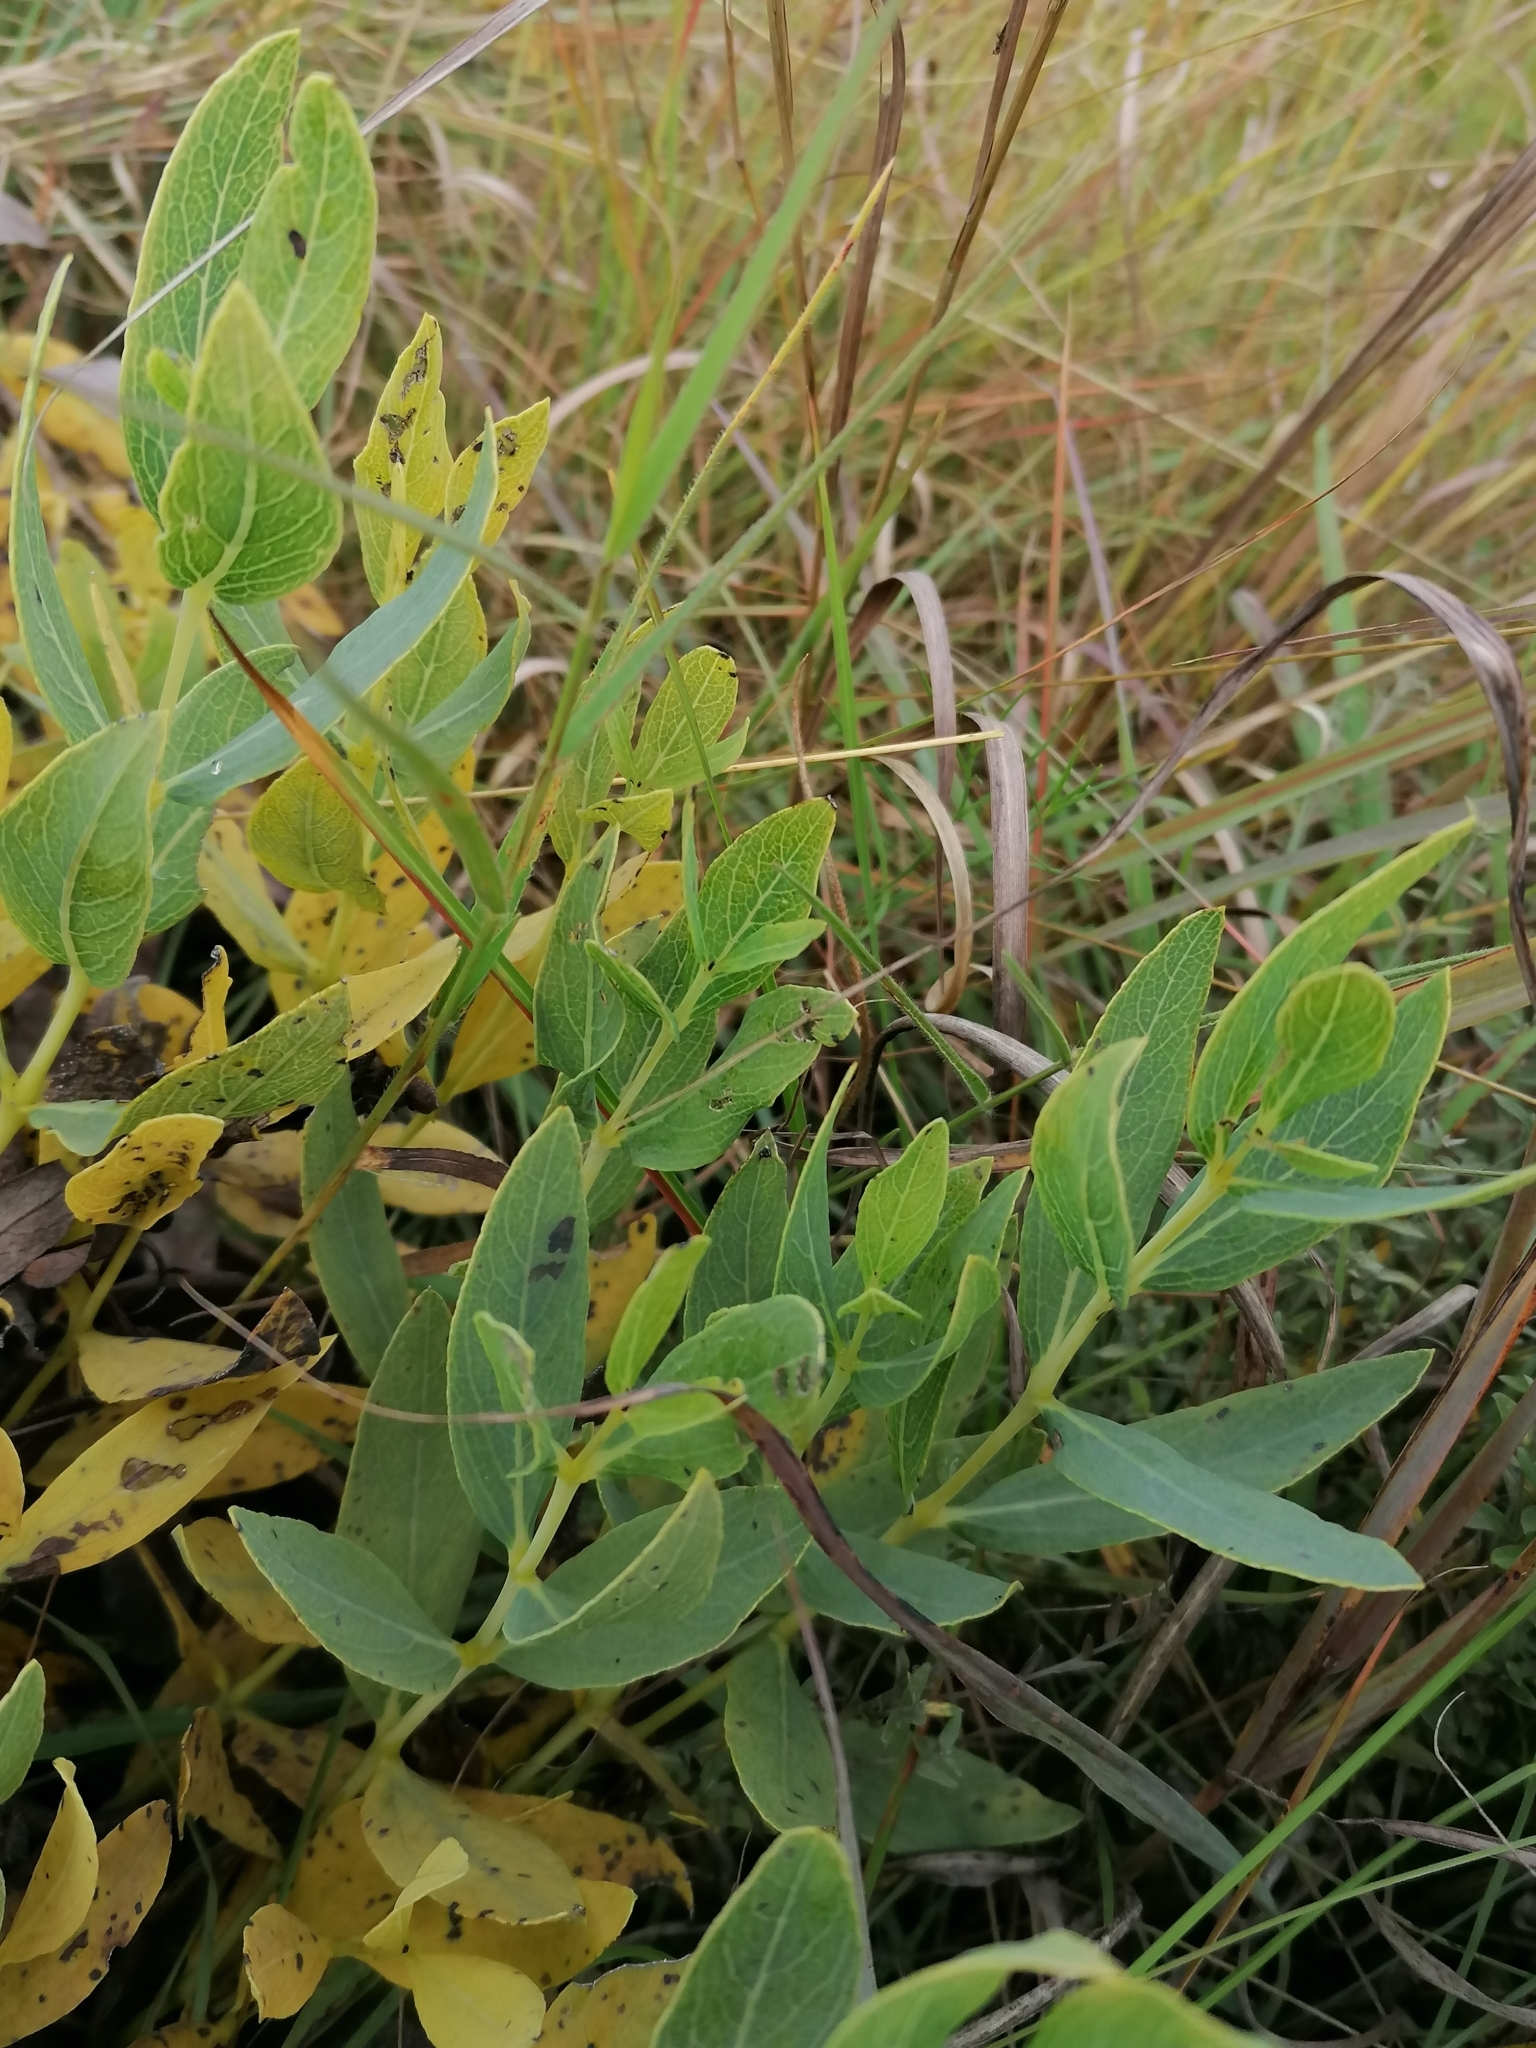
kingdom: Plantae
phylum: Tracheophyta
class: Magnoliopsida
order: Boraginales
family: Boraginaceae
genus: Trichodesma
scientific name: Trichodesma physaloides
